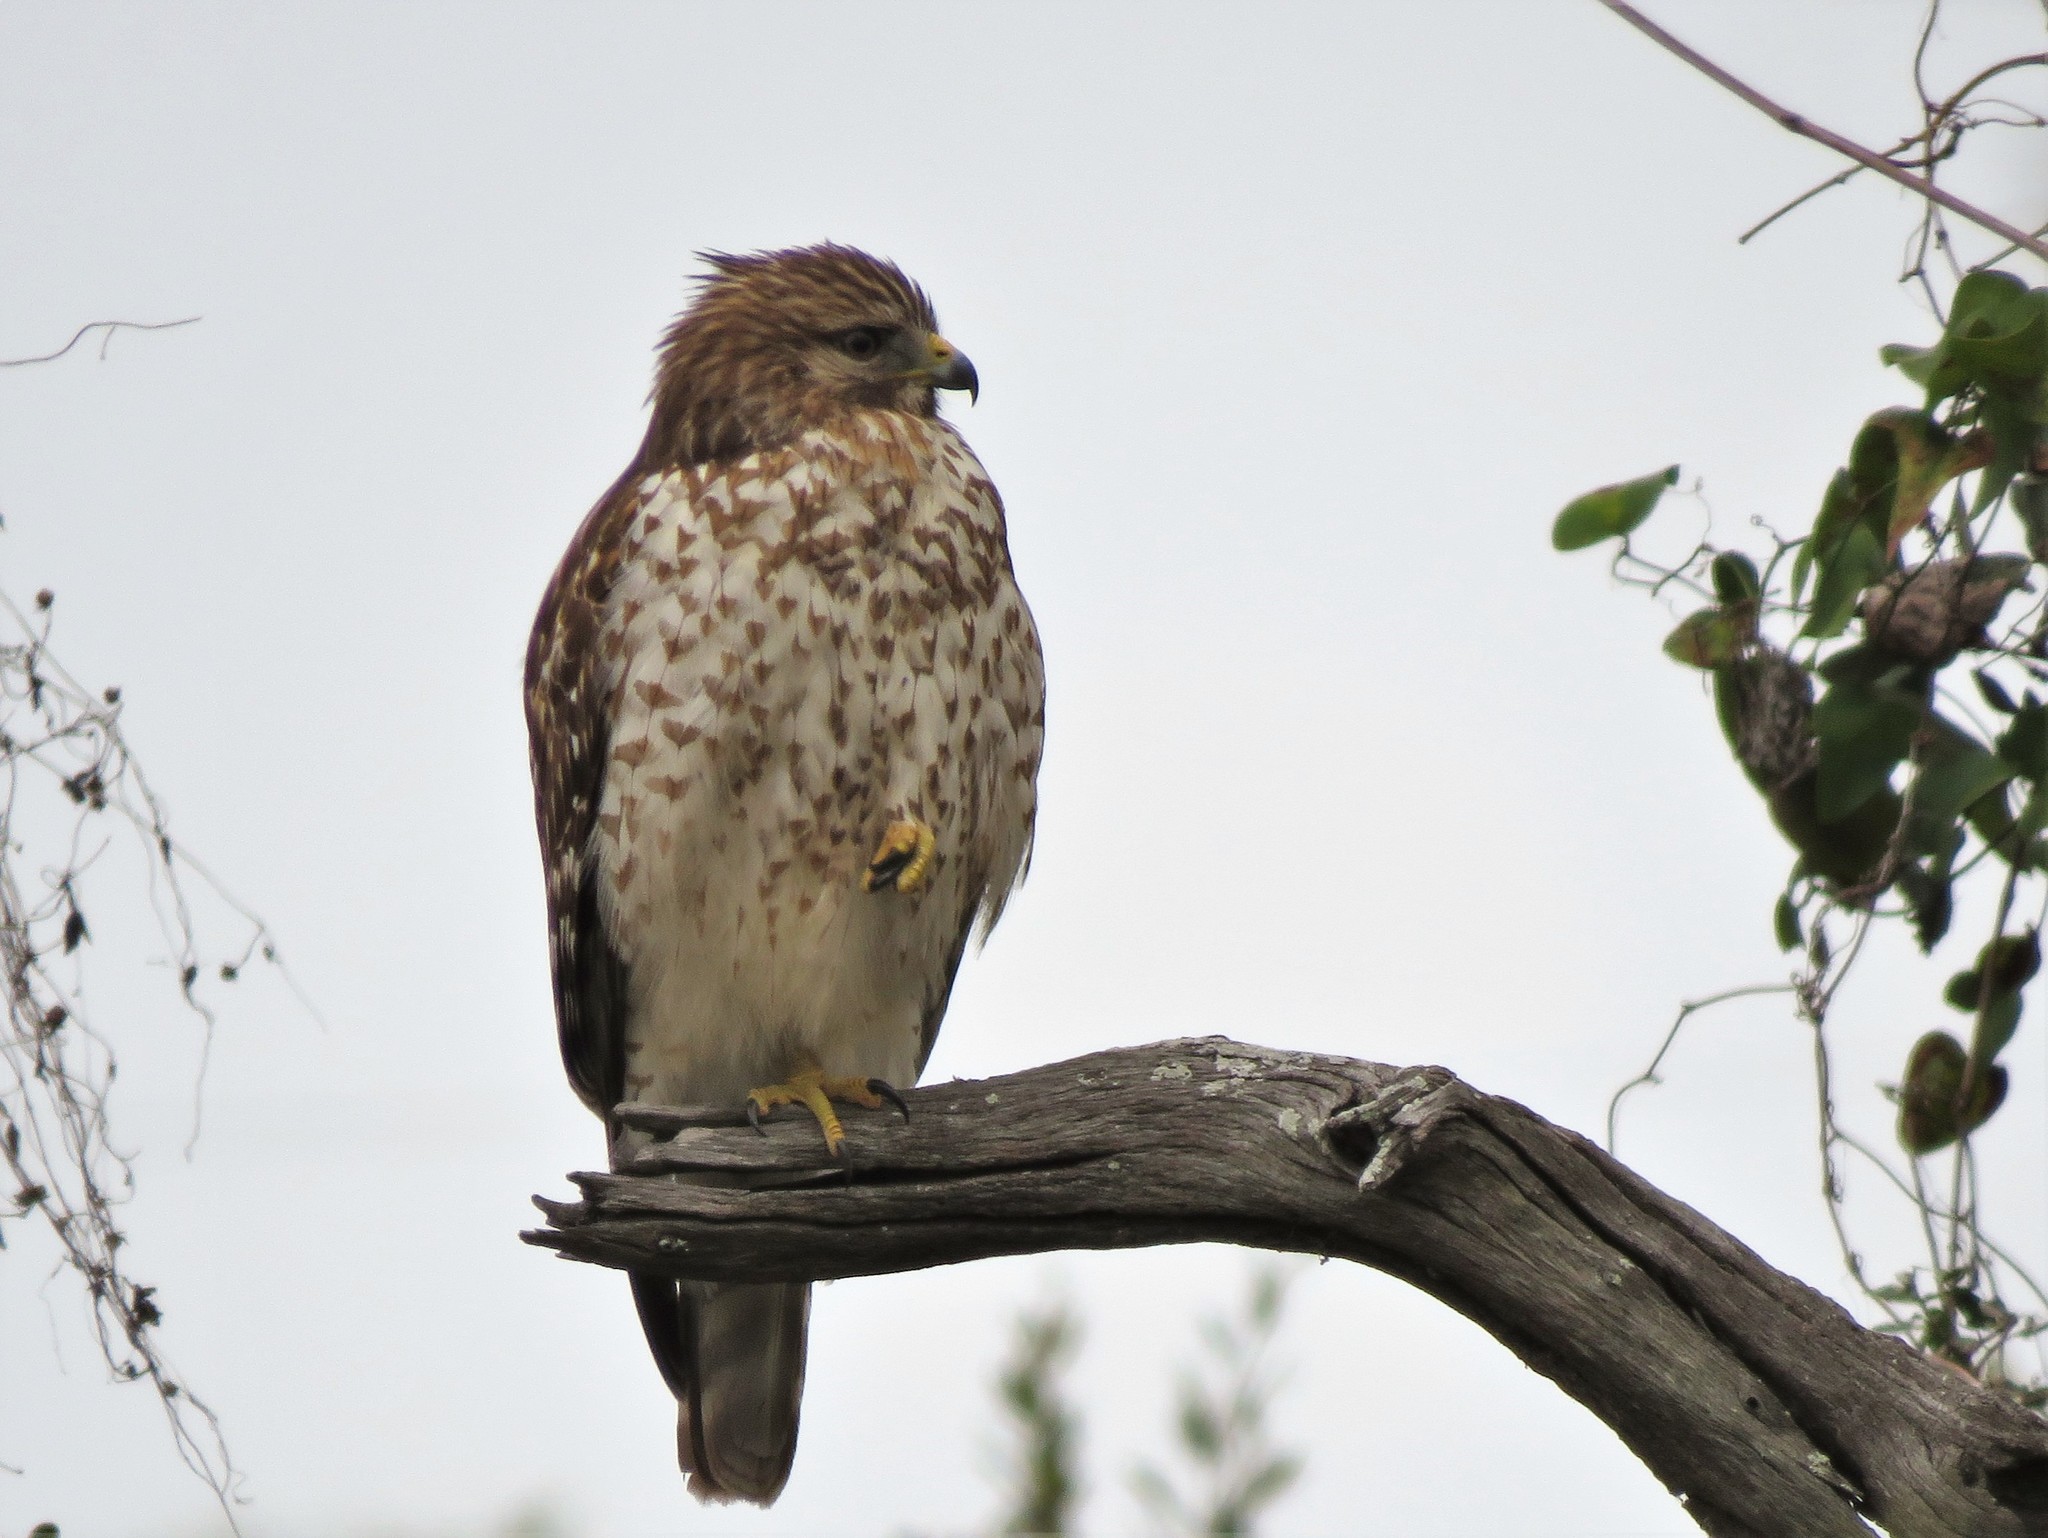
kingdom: Animalia
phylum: Chordata
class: Aves
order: Accipitriformes
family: Accipitridae
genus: Buteo
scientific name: Buteo lineatus
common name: Red-shouldered hawk
